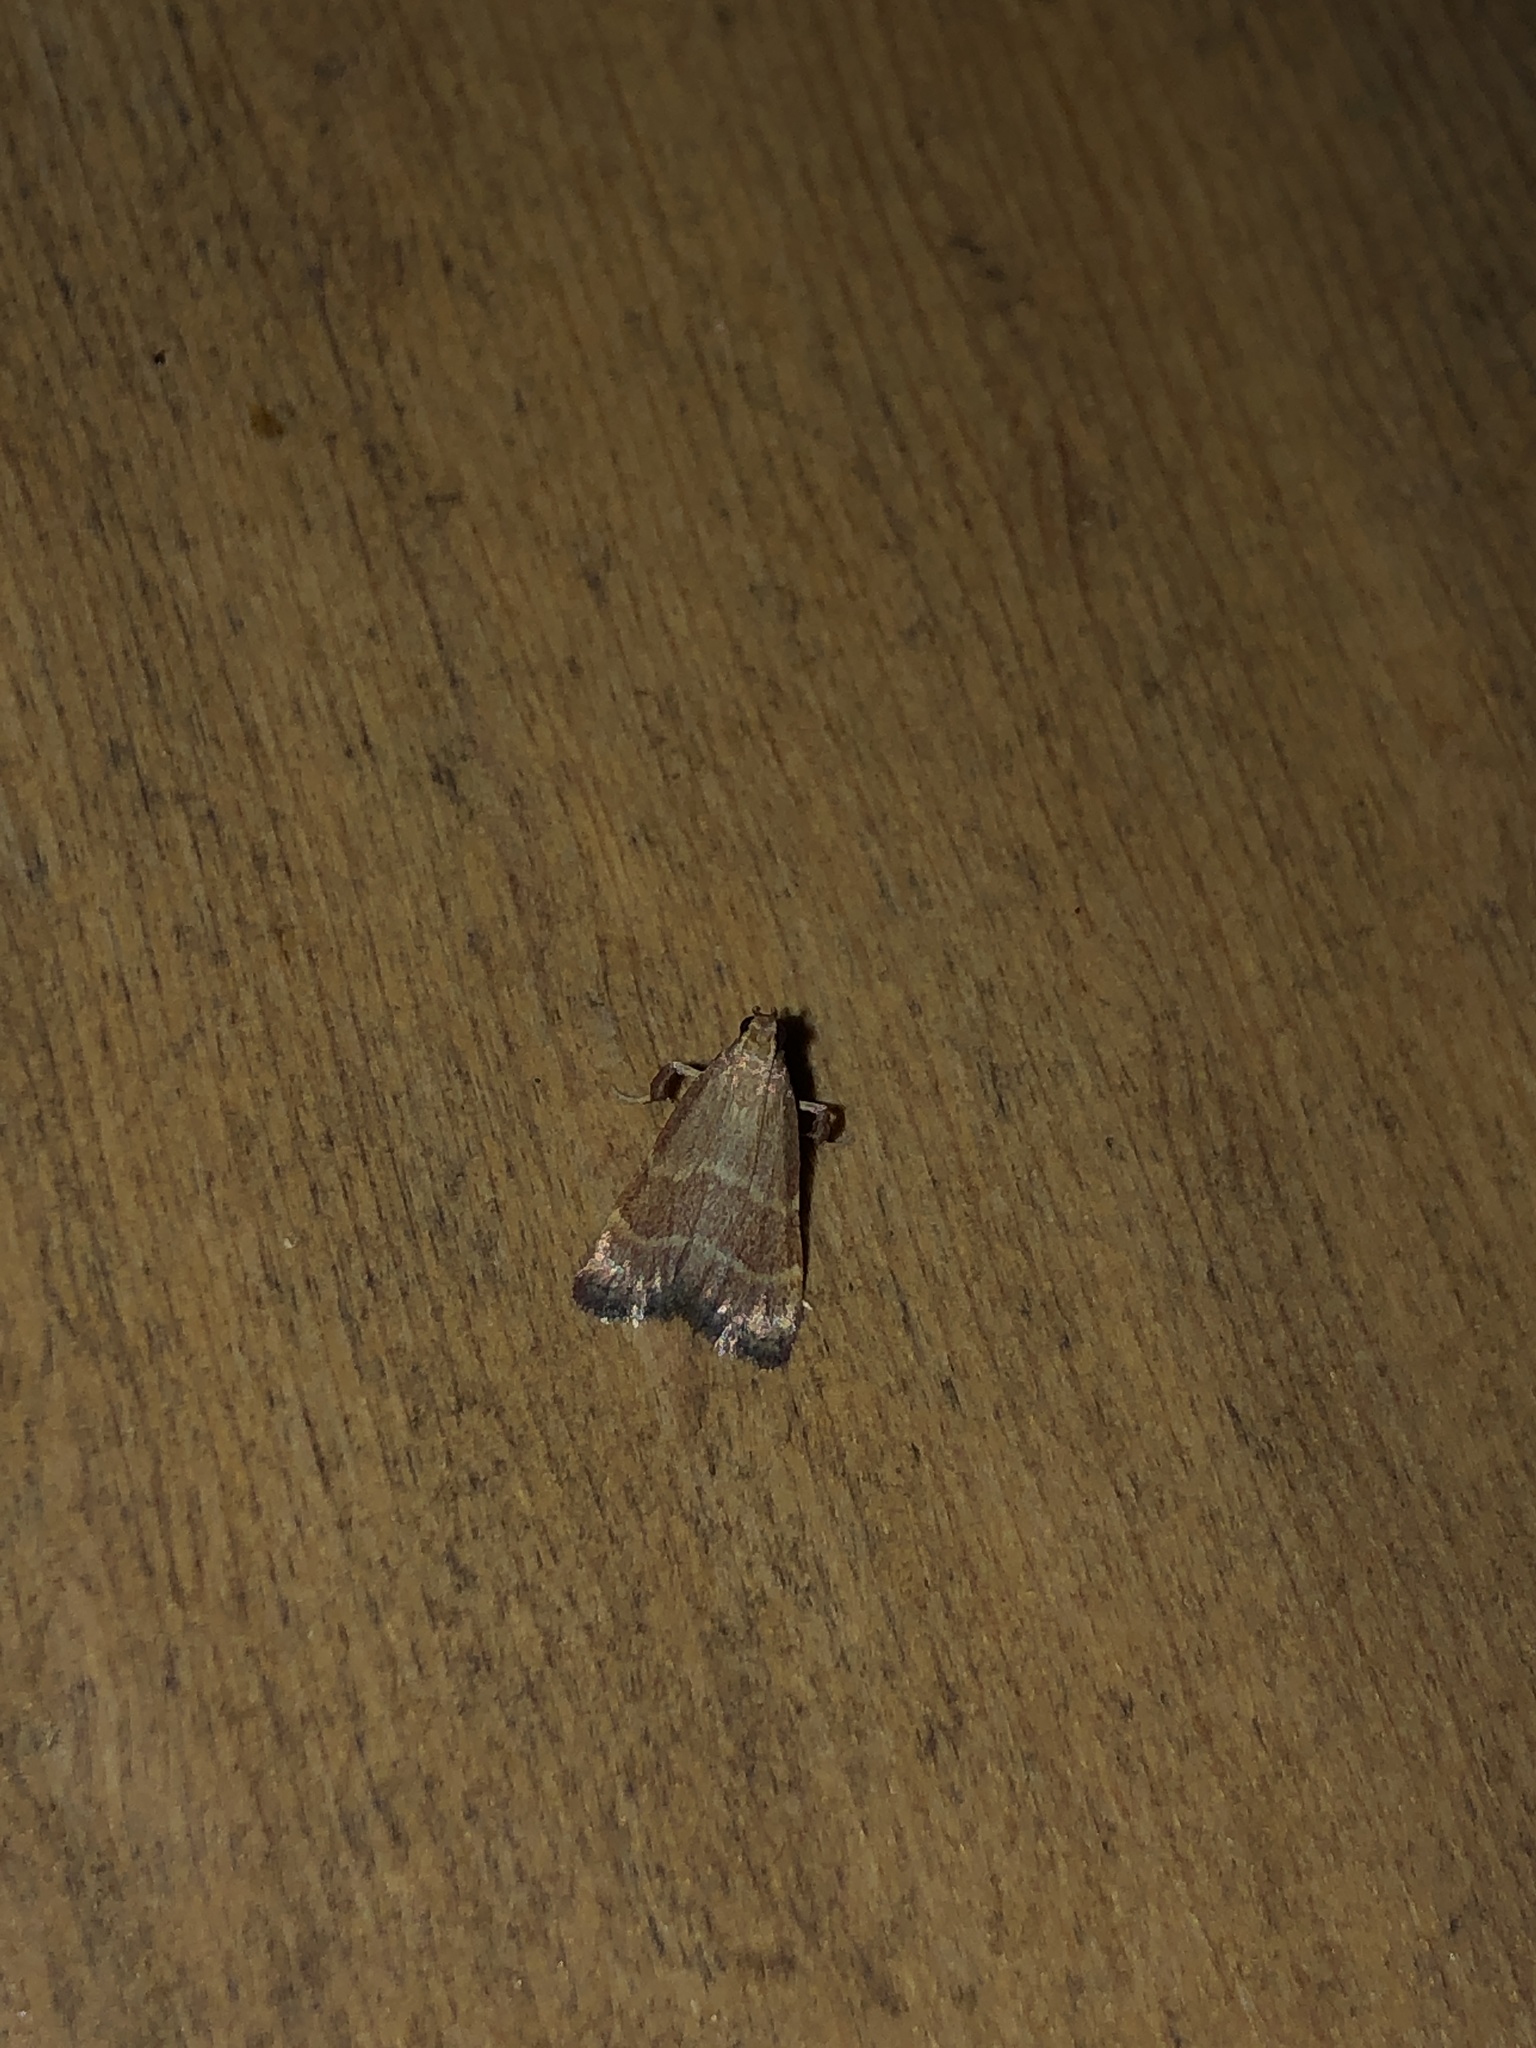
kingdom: Animalia
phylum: Arthropoda
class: Insecta
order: Lepidoptera
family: Pyralidae
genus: Arta
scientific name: Arta epicoenalis
